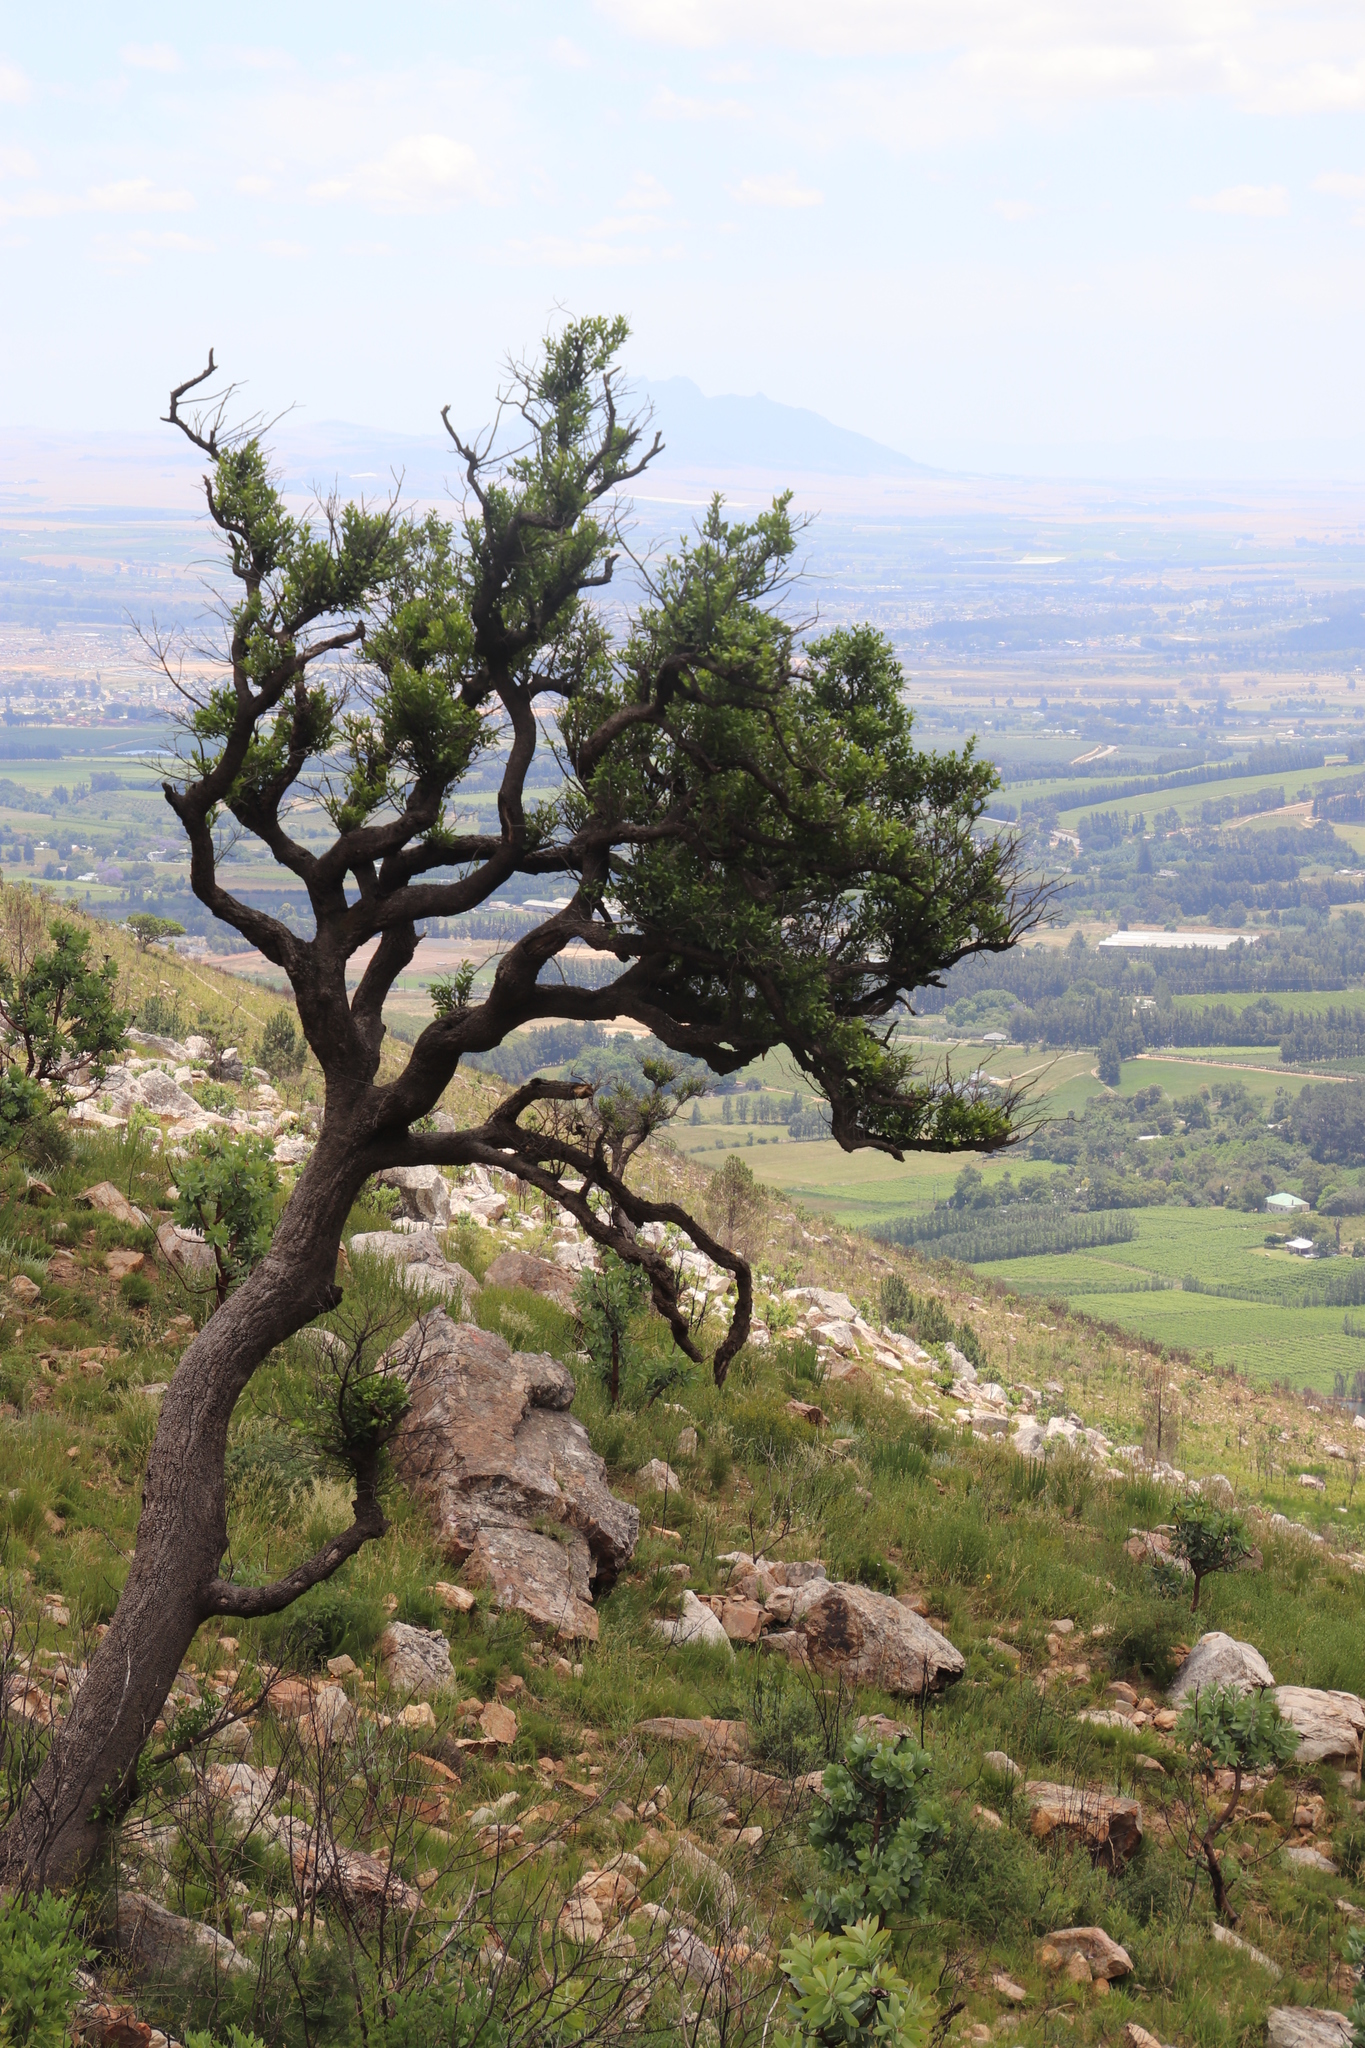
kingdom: Plantae
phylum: Tracheophyta
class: Magnoliopsida
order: Celastrales
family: Celastraceae
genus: Gymnosporia
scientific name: Gymnosporia laurina
